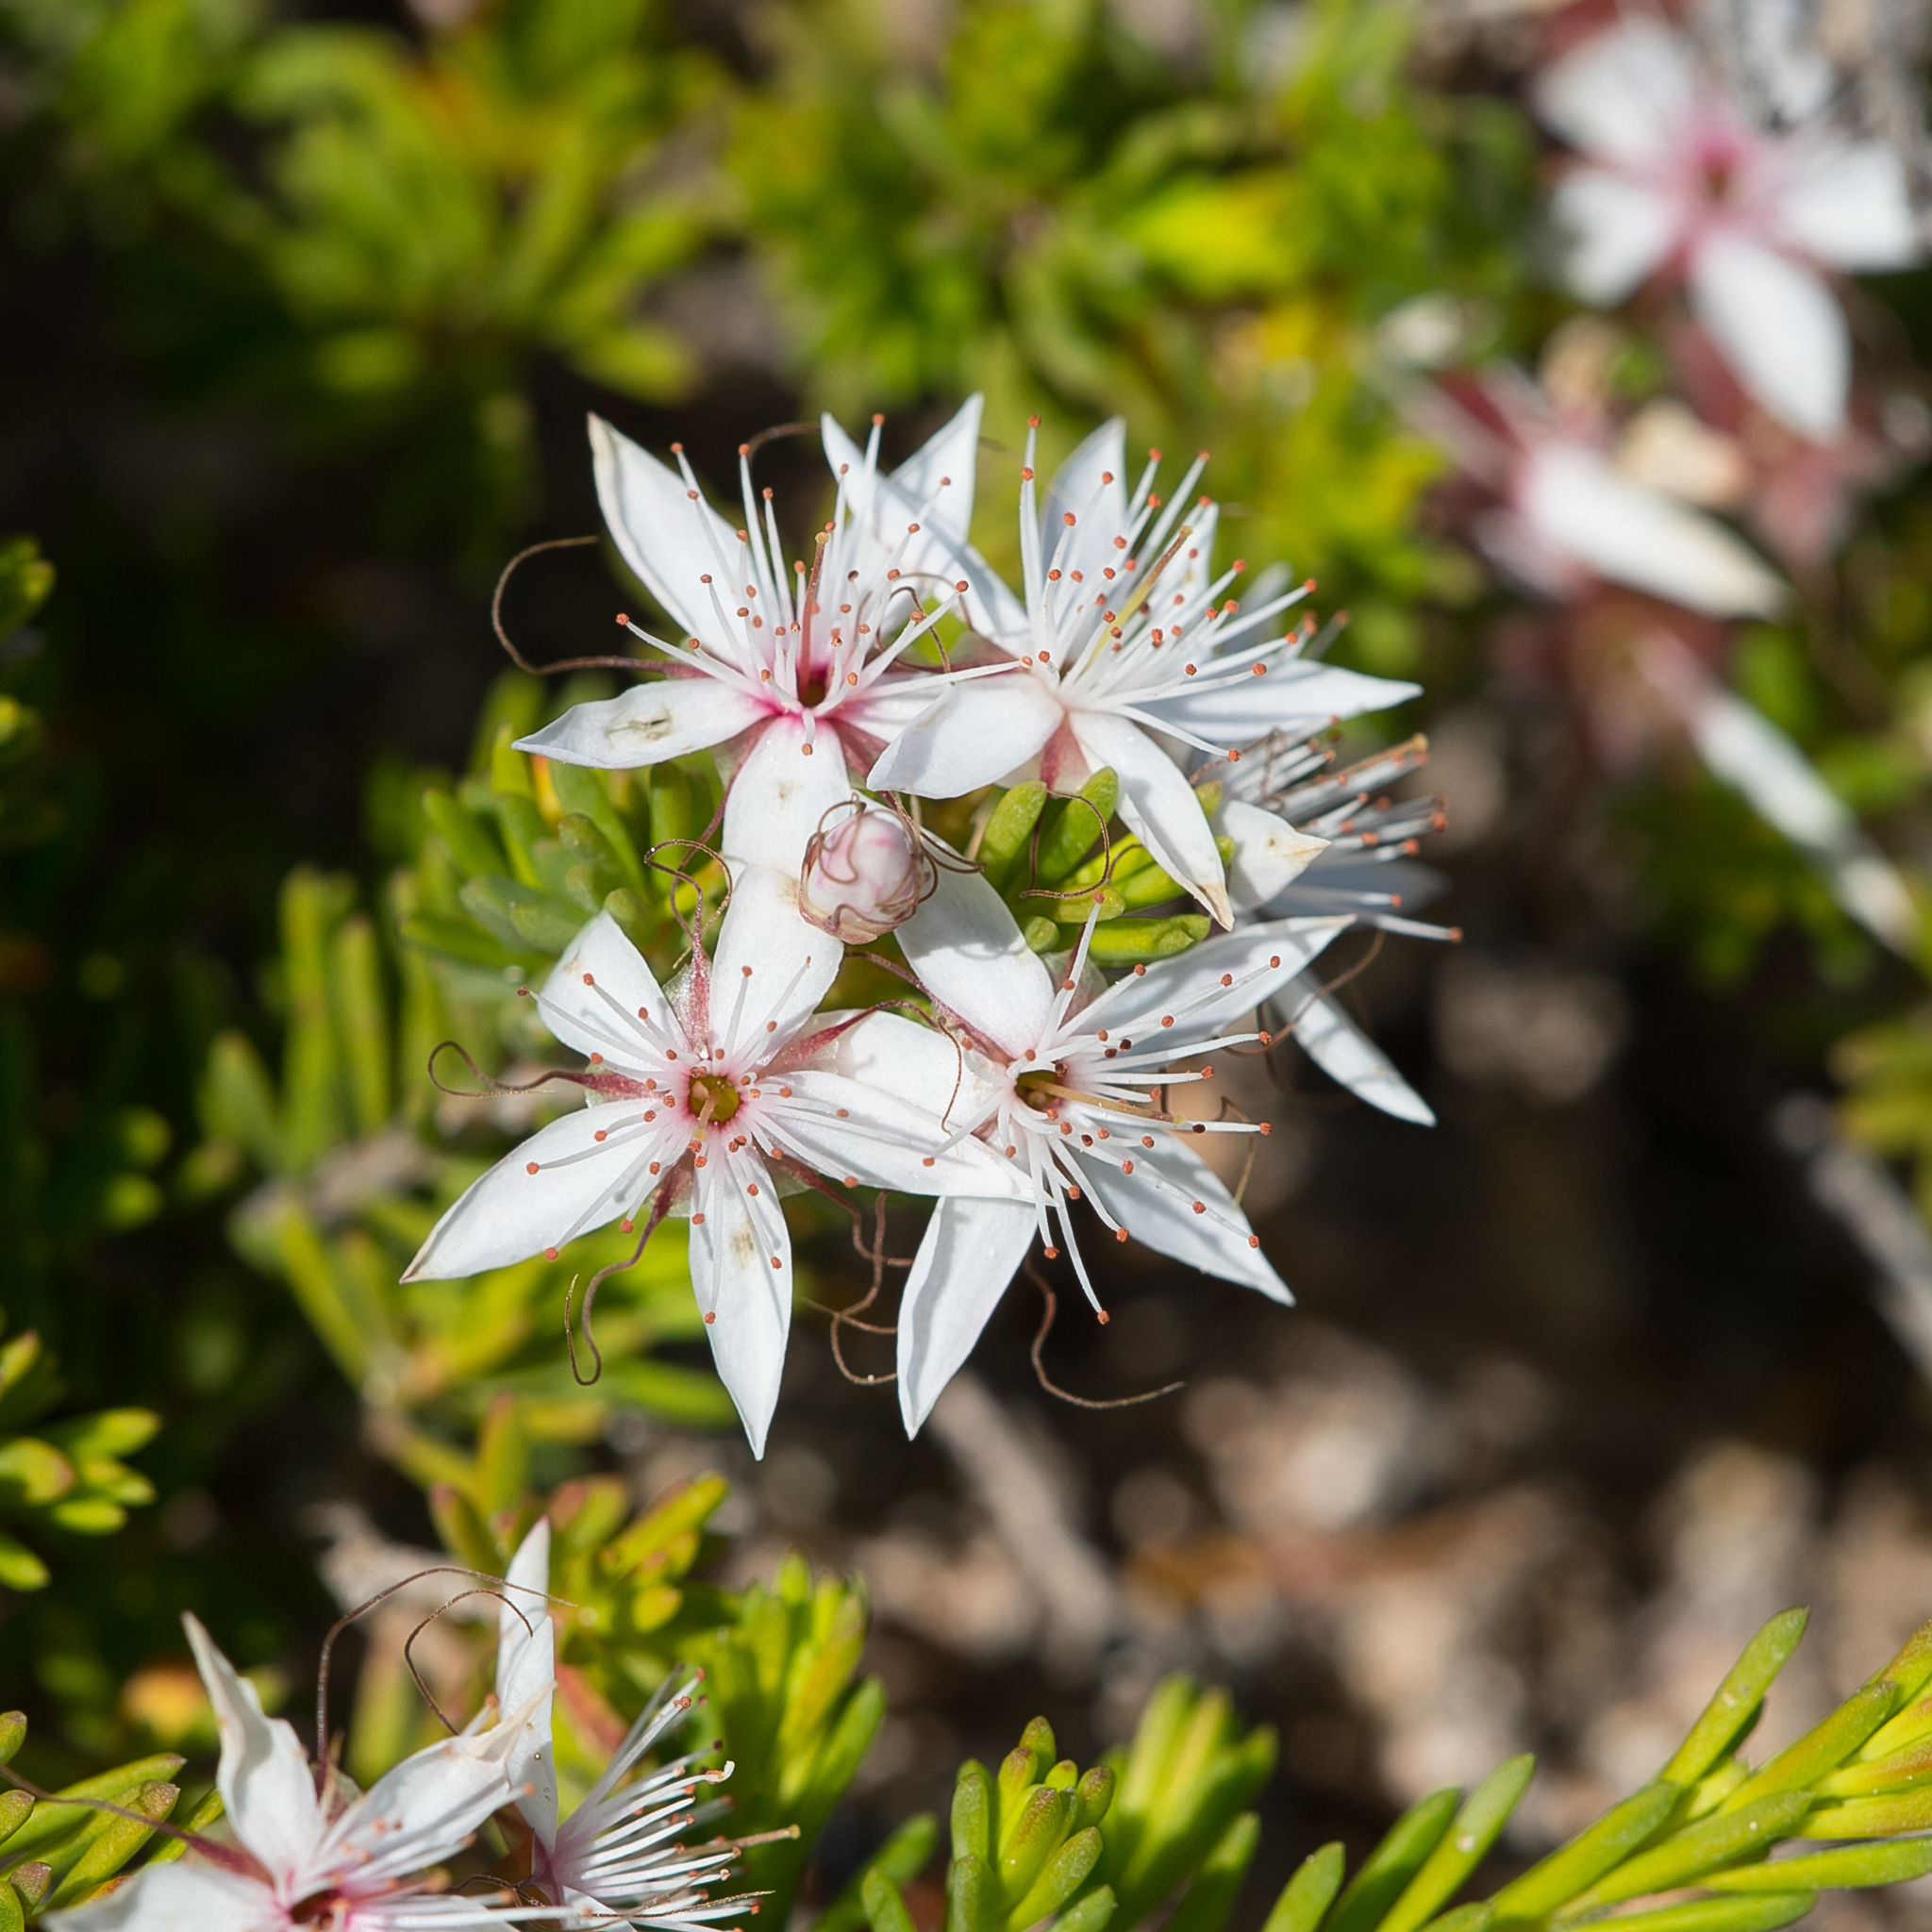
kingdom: Plantae
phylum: Tracheophyta
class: Magnoliopsida
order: Myrtales
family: Myrtaceae
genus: Calytrix
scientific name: Calytrix tetragona
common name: Common fringe myrtle
